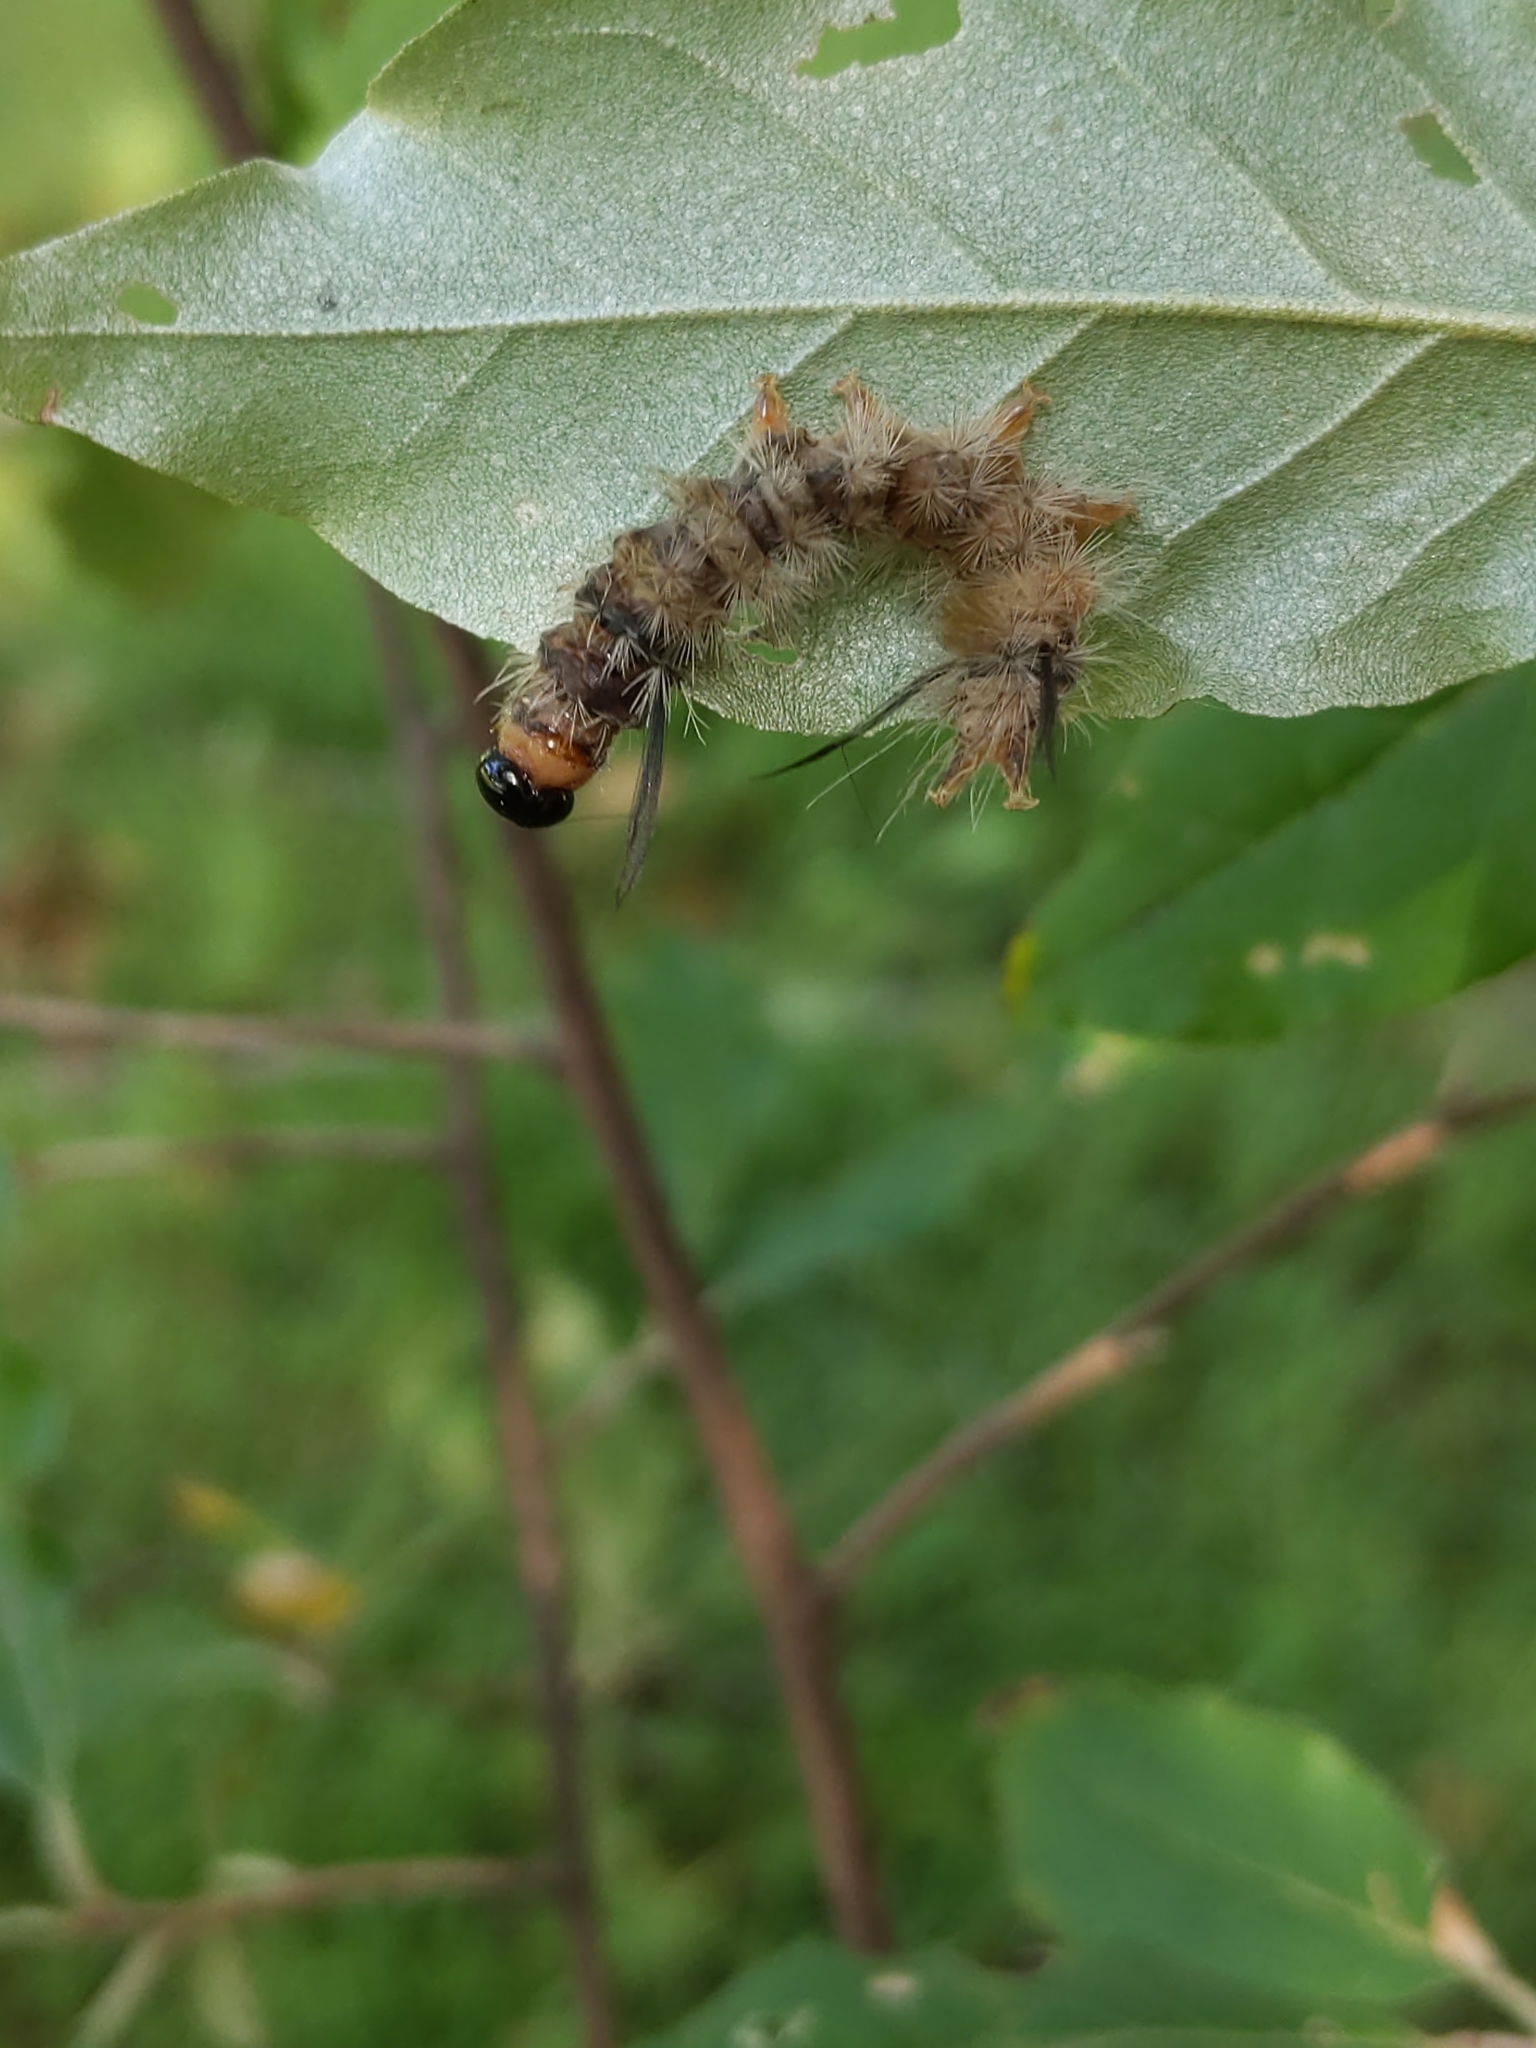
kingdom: Animalia
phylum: Arthropoda
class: Insecta
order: Lepidoptera
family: Erebidae
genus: Halysidota
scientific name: Halysidota tessellaris
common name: Banded tussock moth
